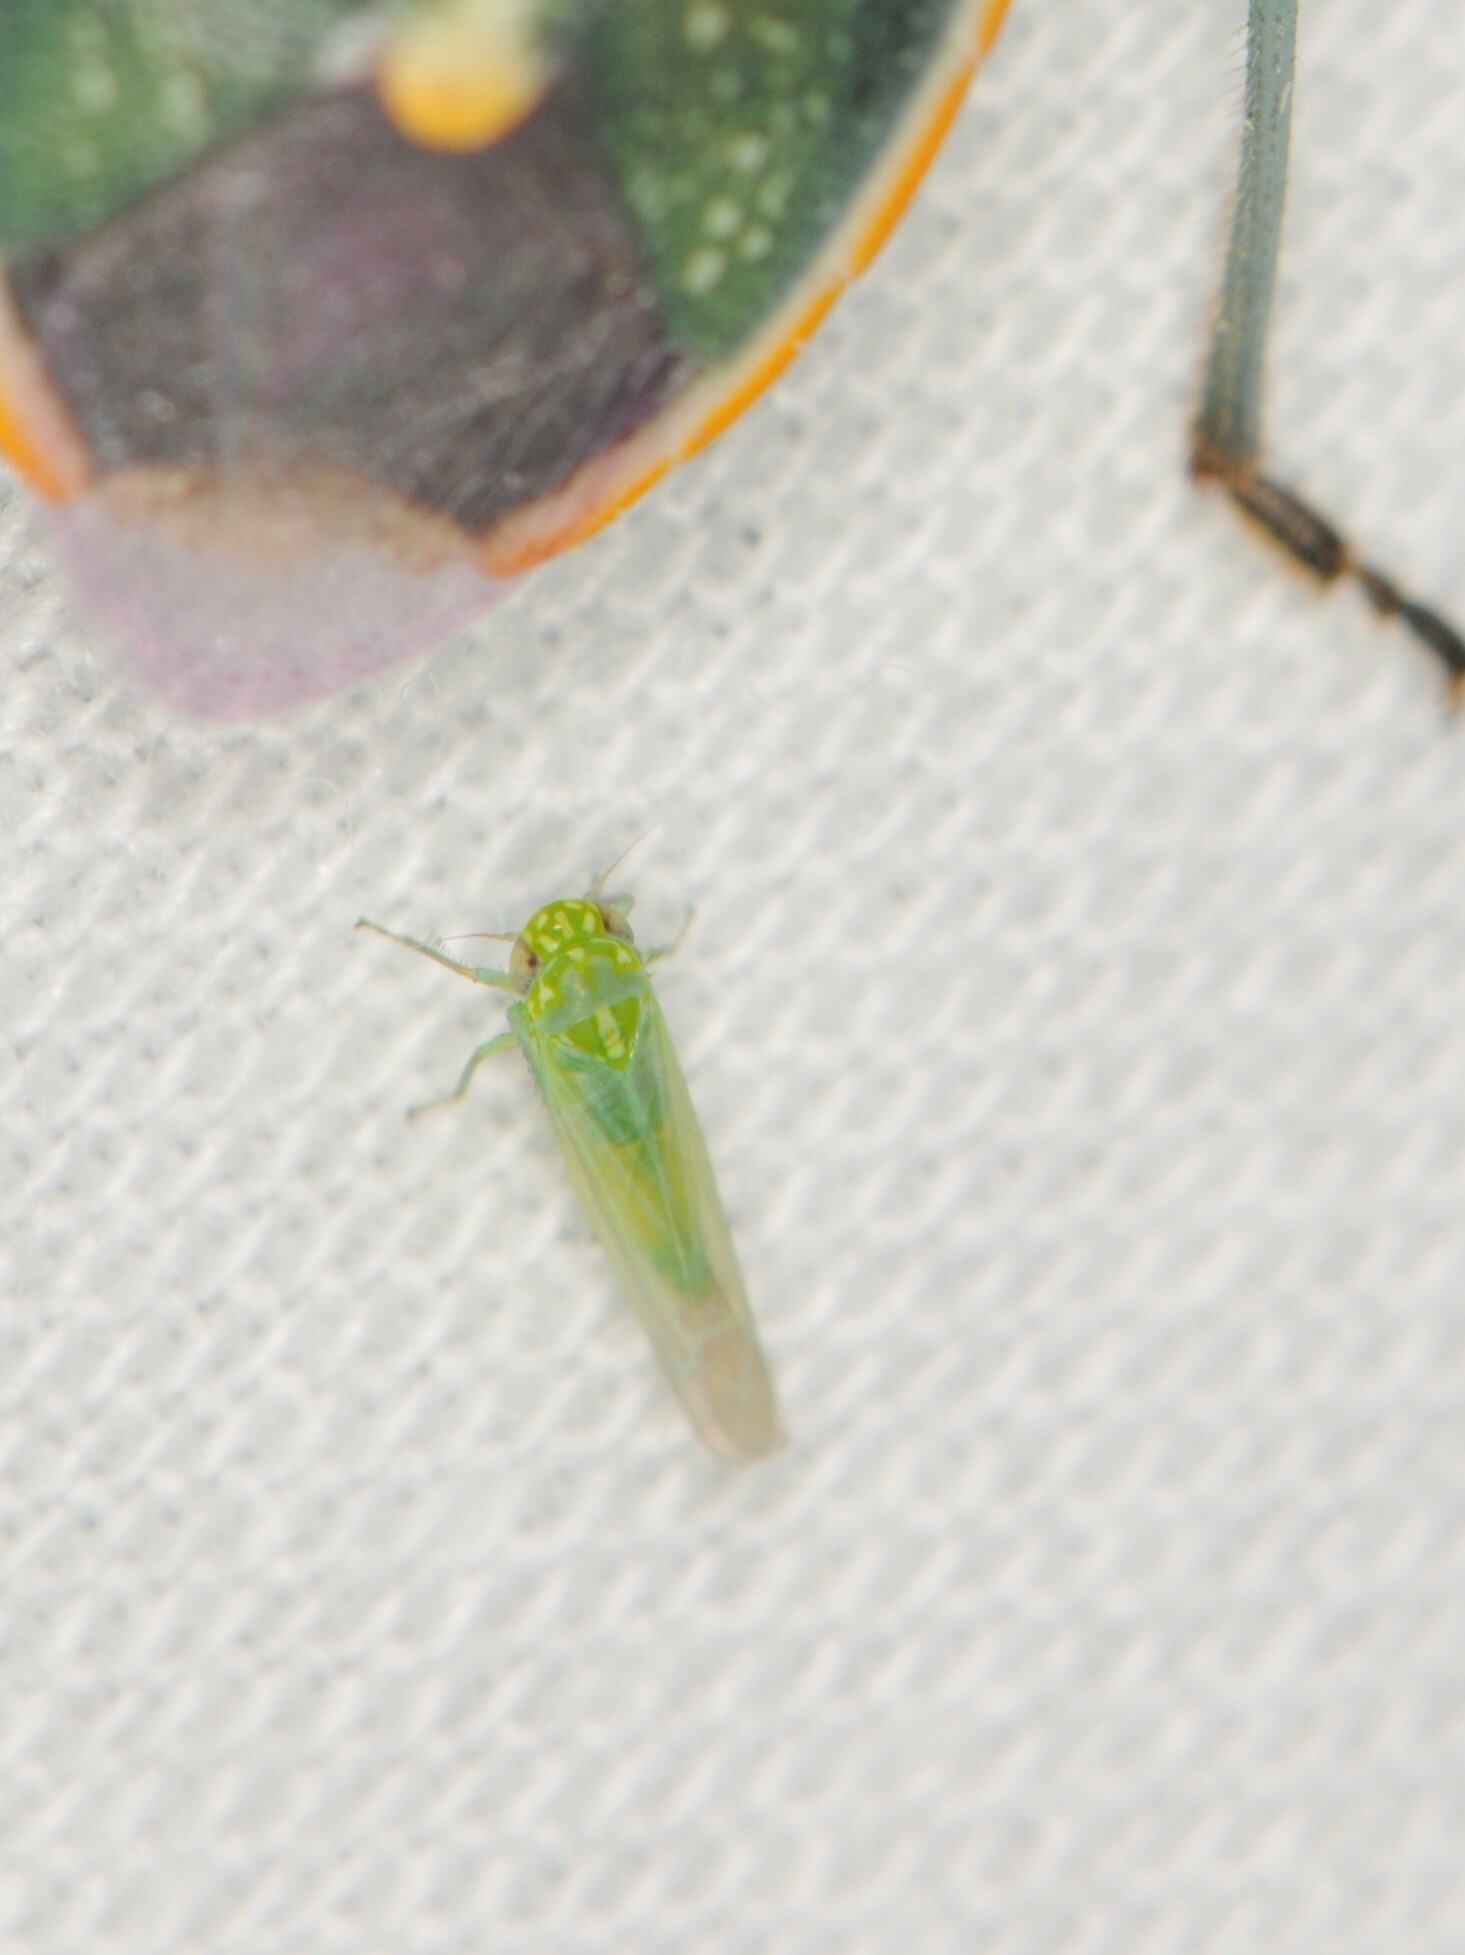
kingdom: Animalia
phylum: Arthropoda
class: Insecta
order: Hemiptera
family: Cicadellidae
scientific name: Cicadellidae
